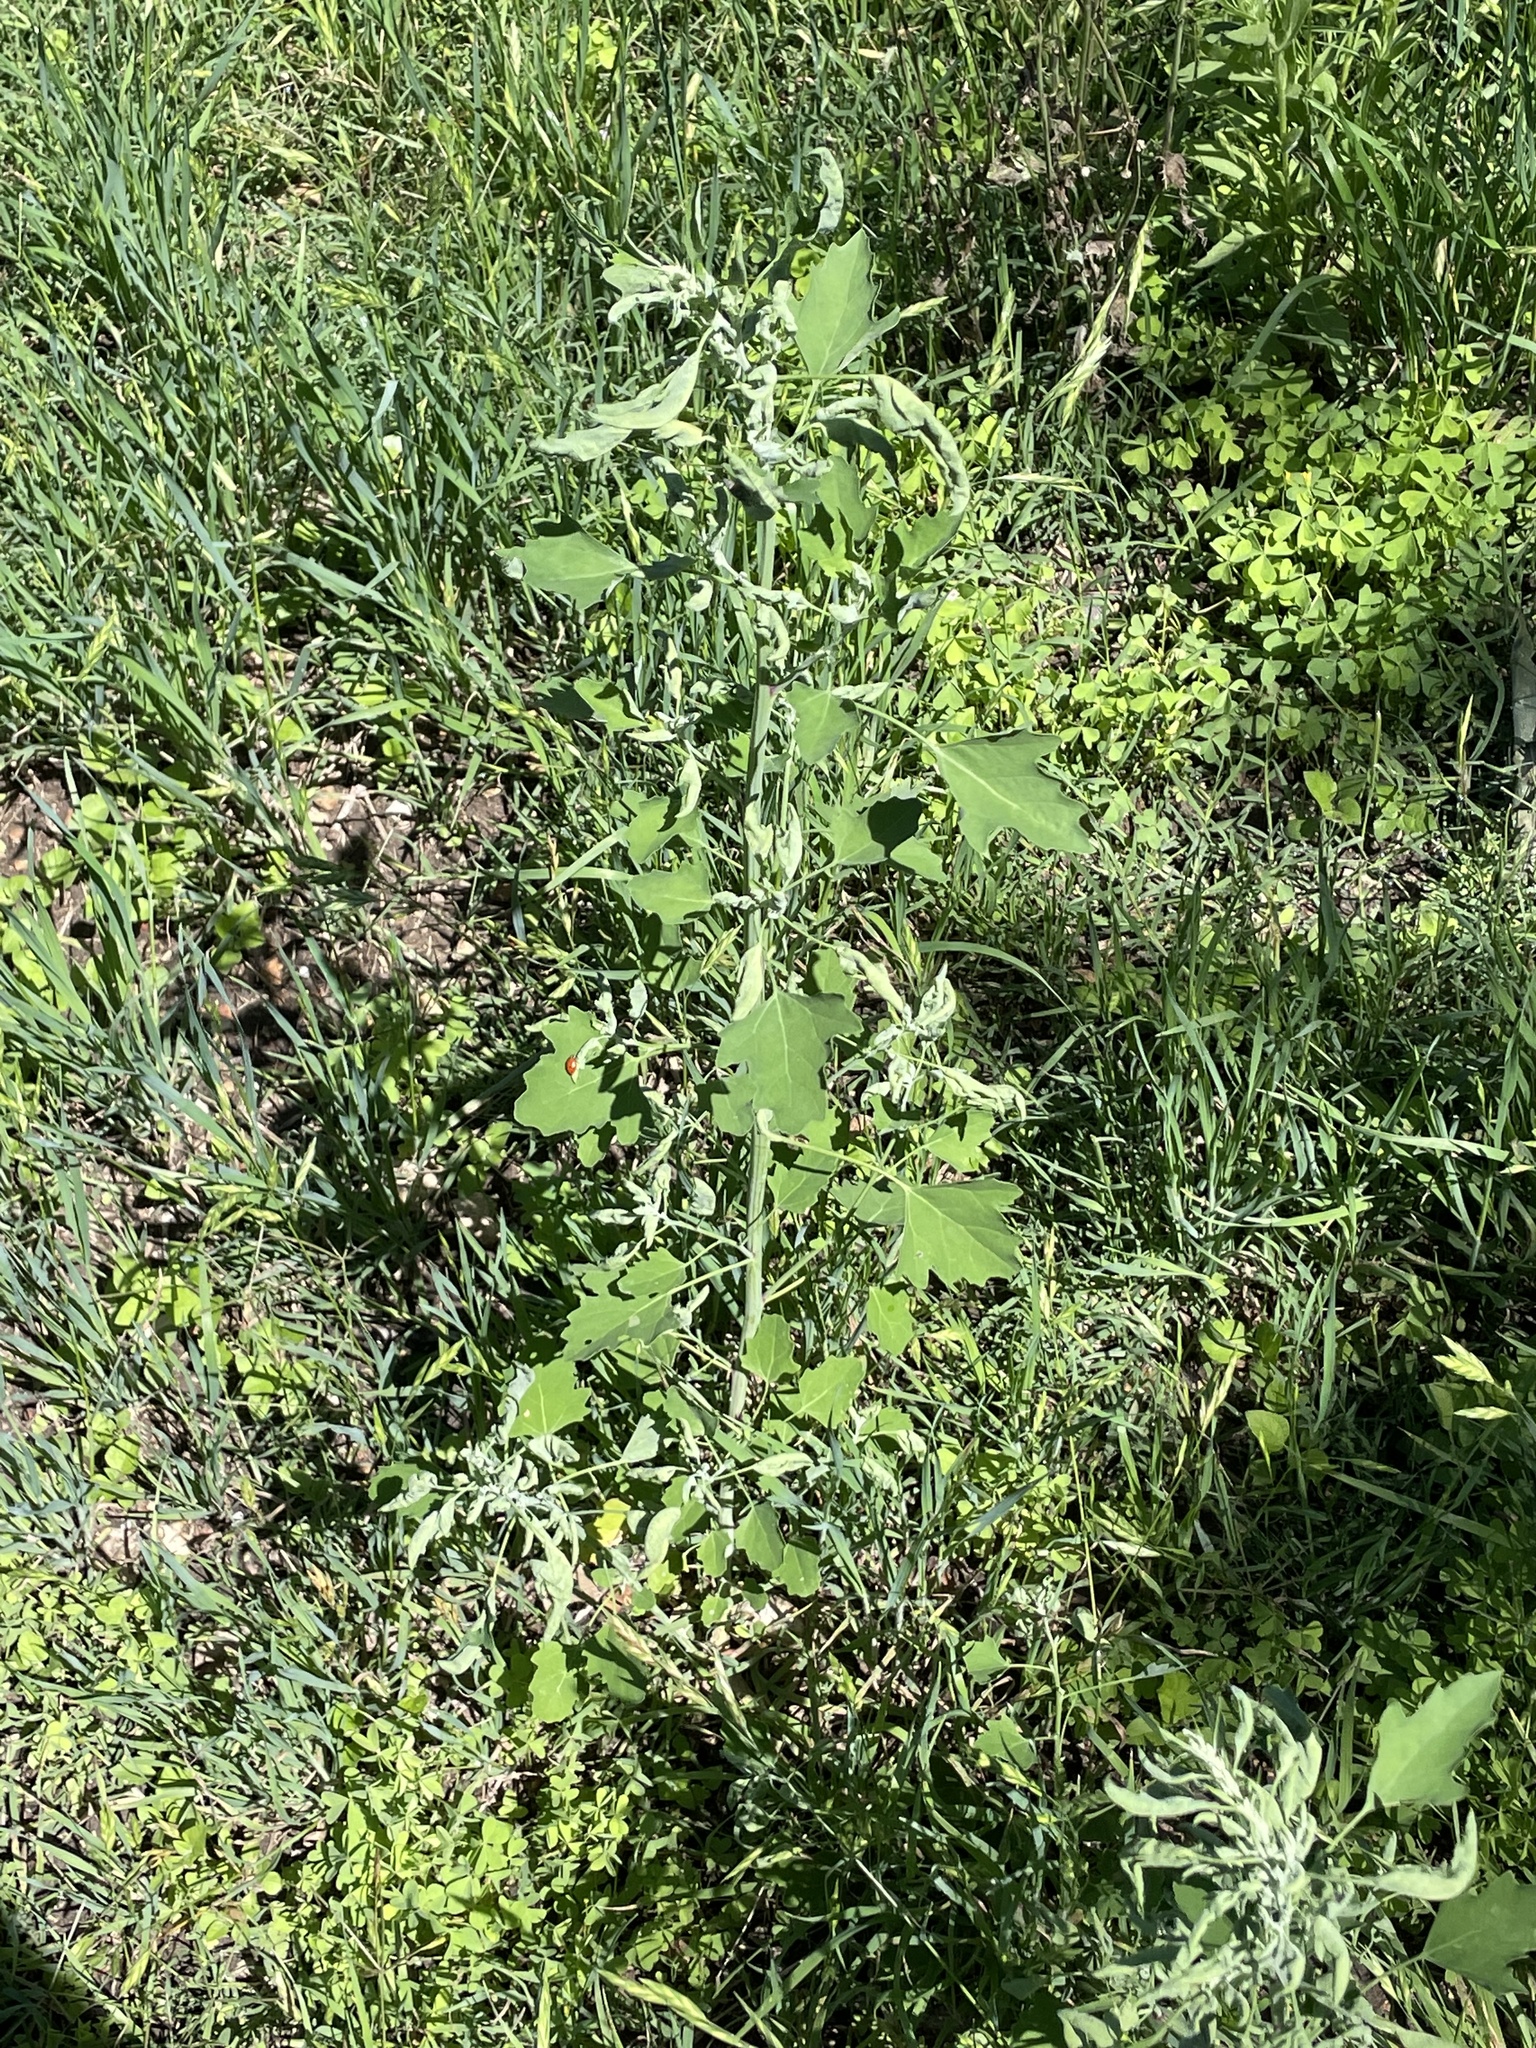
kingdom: Plantae
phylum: Tracheophyta
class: Magnoliopsida
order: Caryophyllales
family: Amaranthaceae
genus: Chenopodium
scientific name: Chenopodium album
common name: Fat-hen
